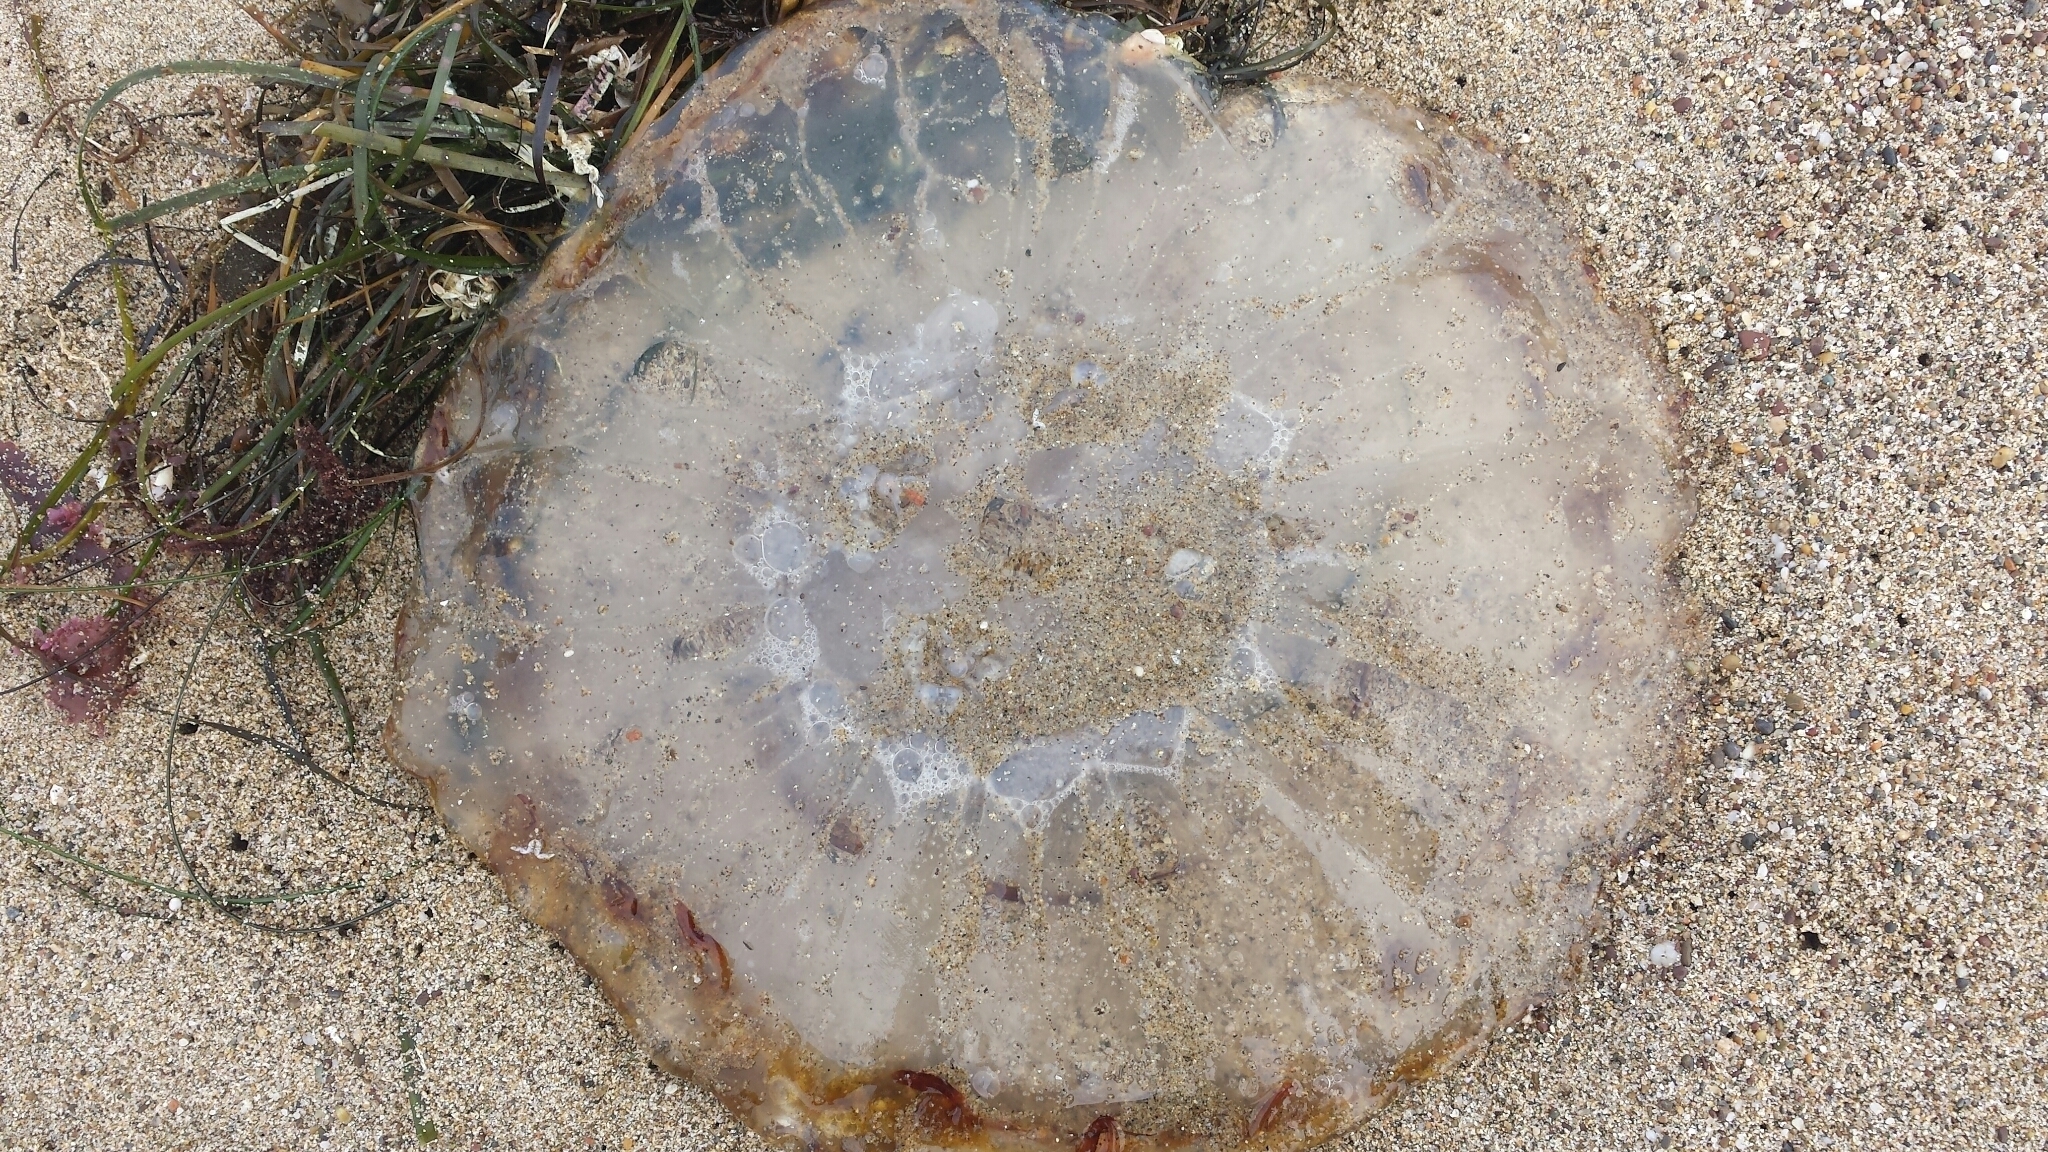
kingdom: Animalia
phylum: Cnidaria
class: Scyphozoa
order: Semaeostomeae
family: Pelagiidae
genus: Chrysaora
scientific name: Chrysaora fuscescens
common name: Sea nettle
